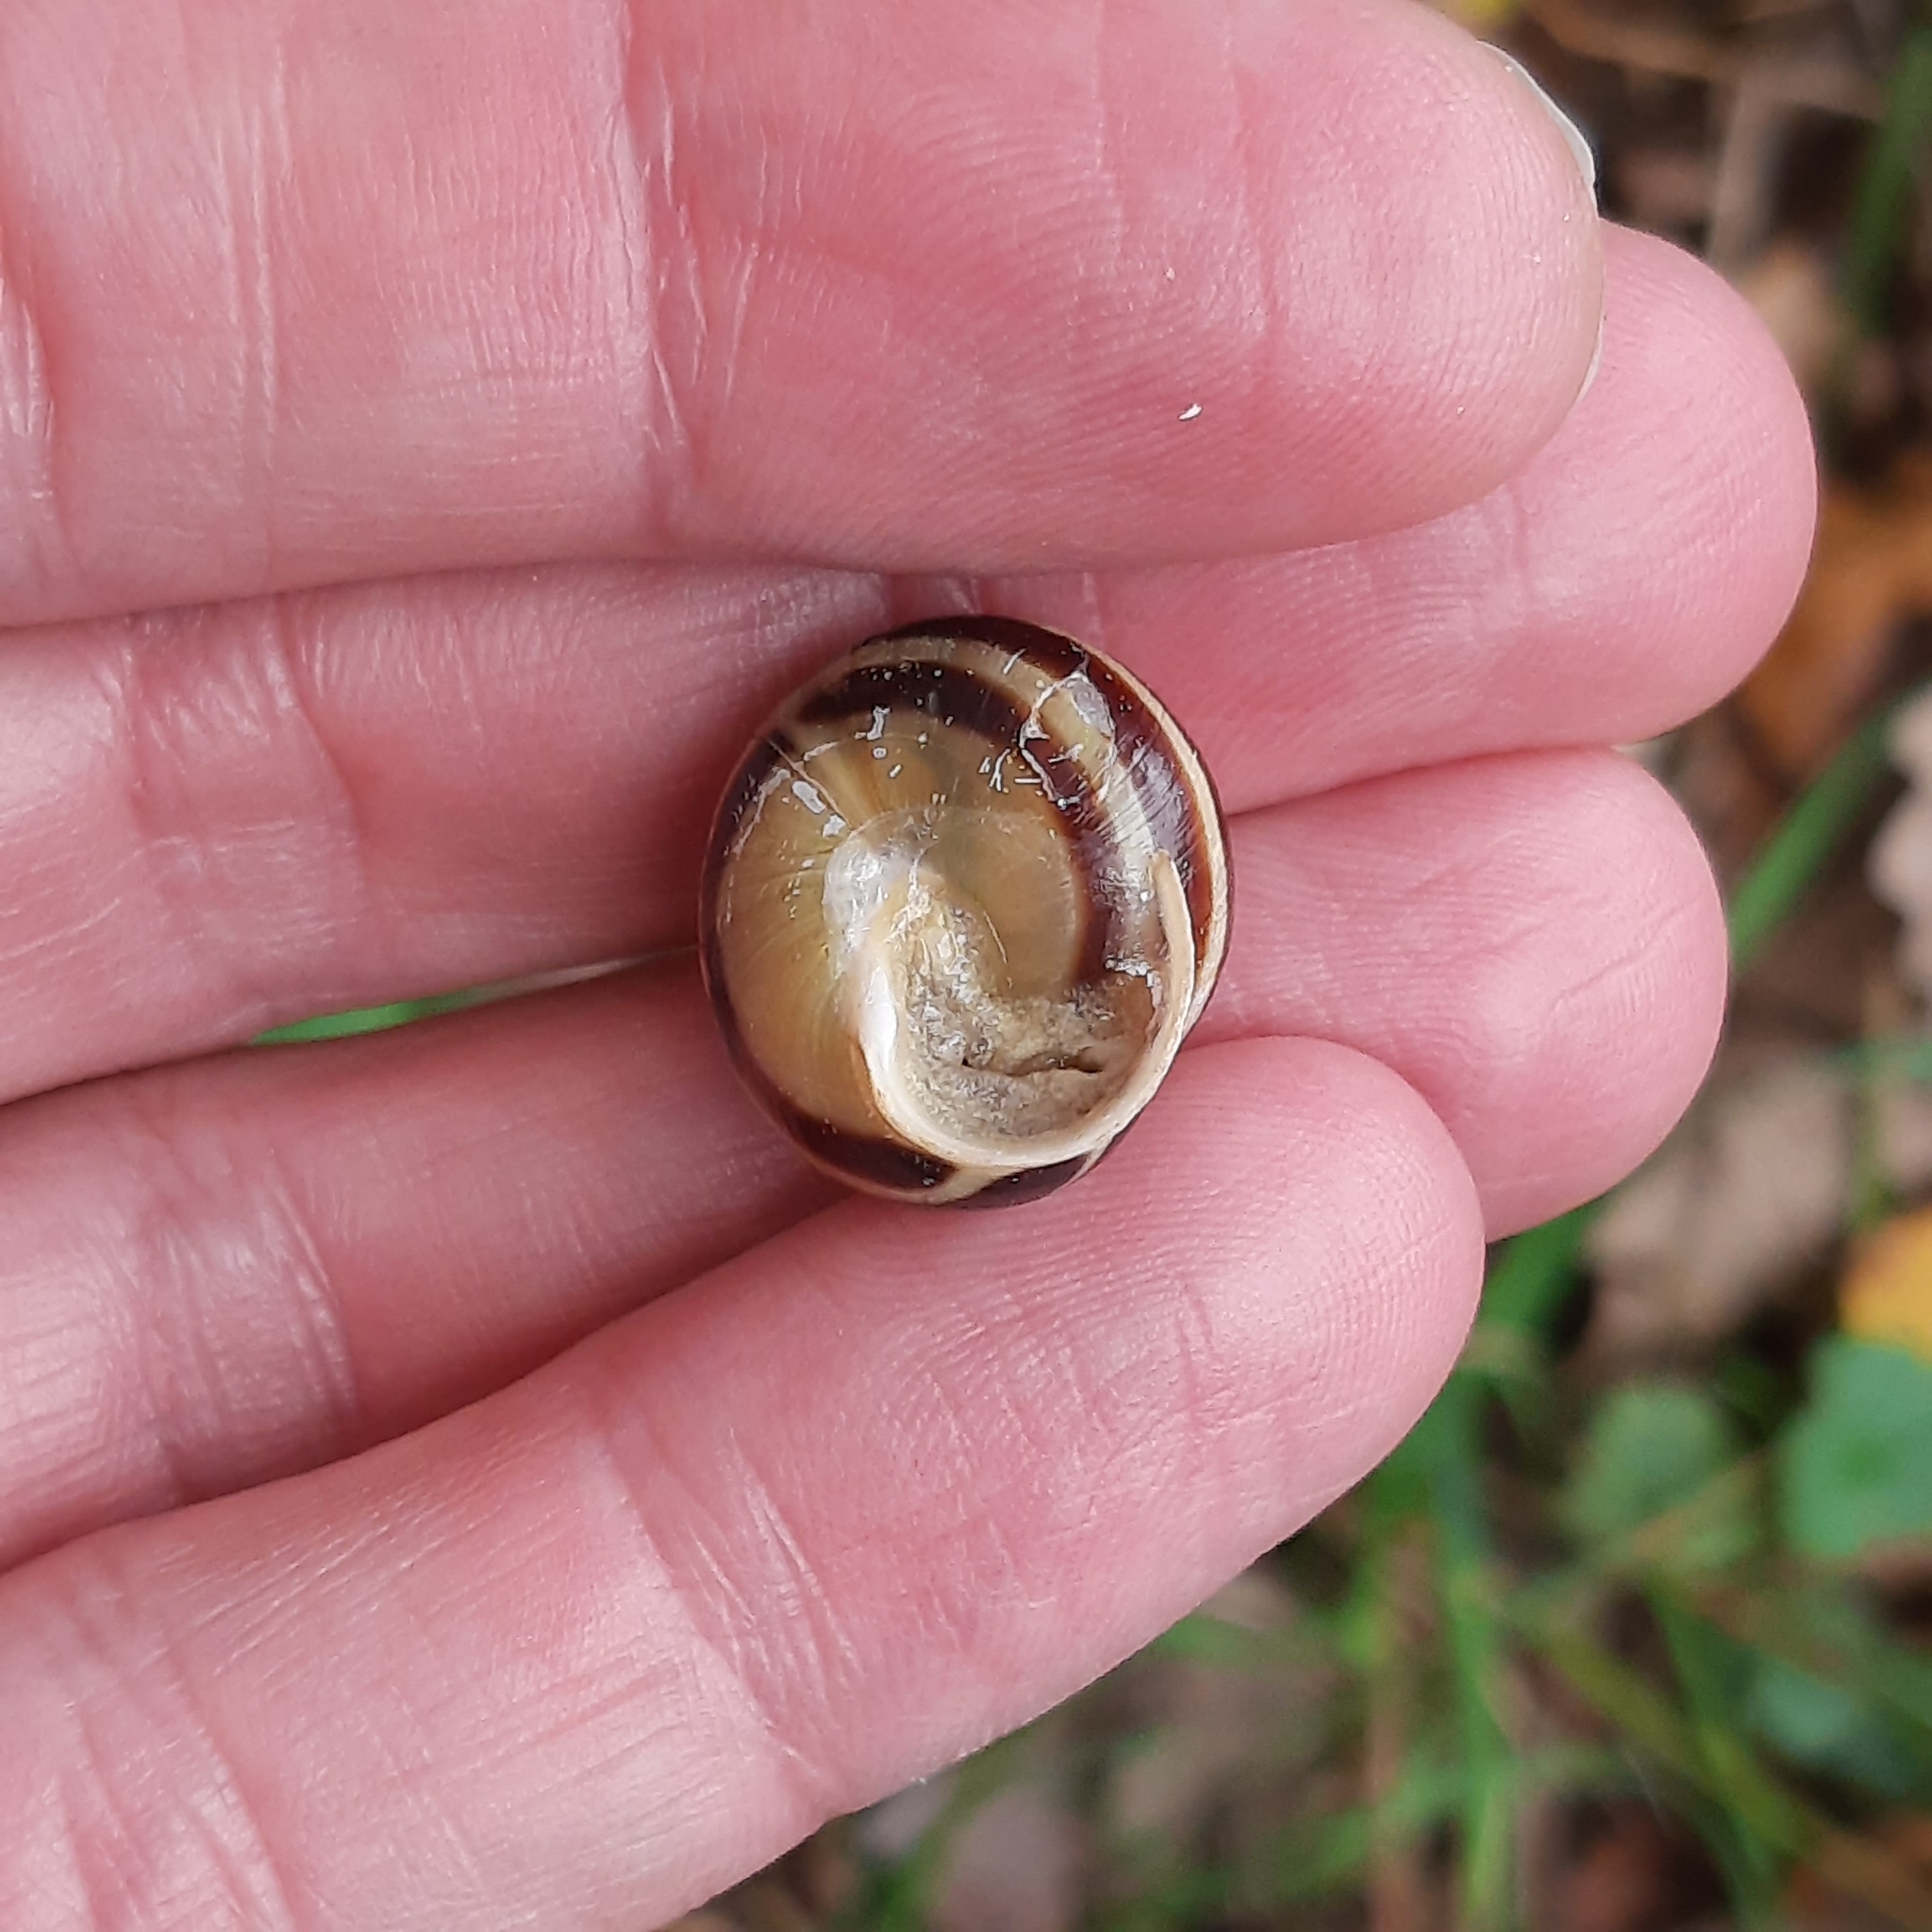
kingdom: Animalia
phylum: Mollusca
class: Gastropoda
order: Stylommatophora
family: Helicidae
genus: Cepaea
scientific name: Cepaea hortensis
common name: White-lip gardensnail
